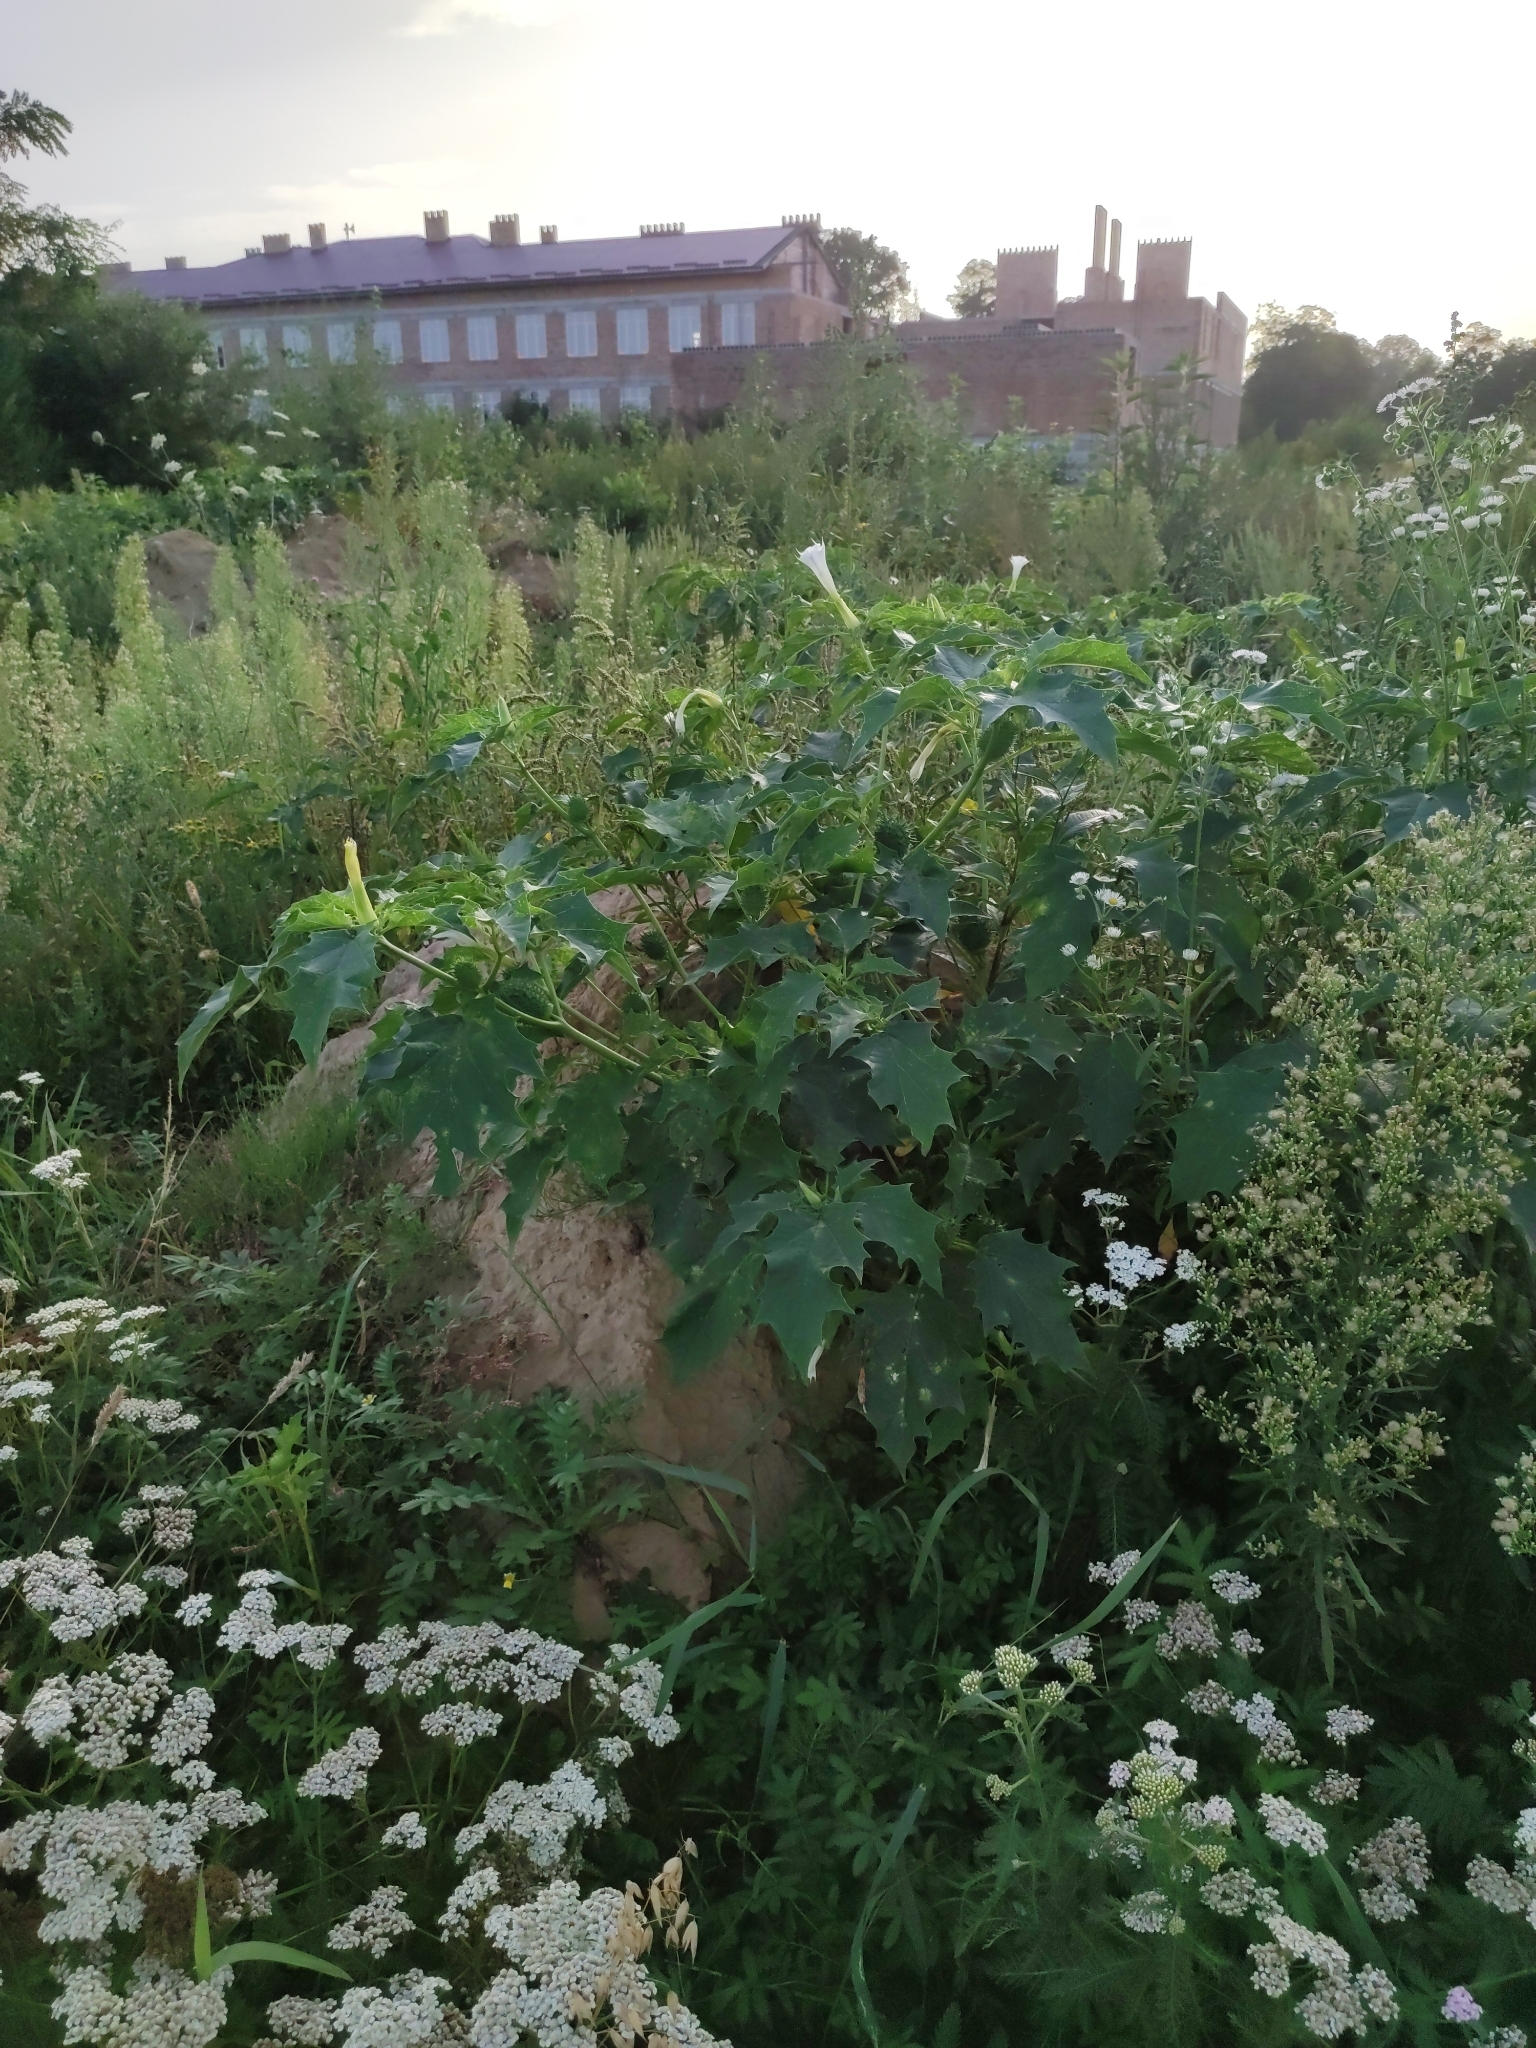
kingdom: Plantae
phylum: Tracheophyta
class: Magnoliopsida
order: Solanales
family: Solanaceae
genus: Datura
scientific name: Datura stramonium
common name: Thorn-apple
